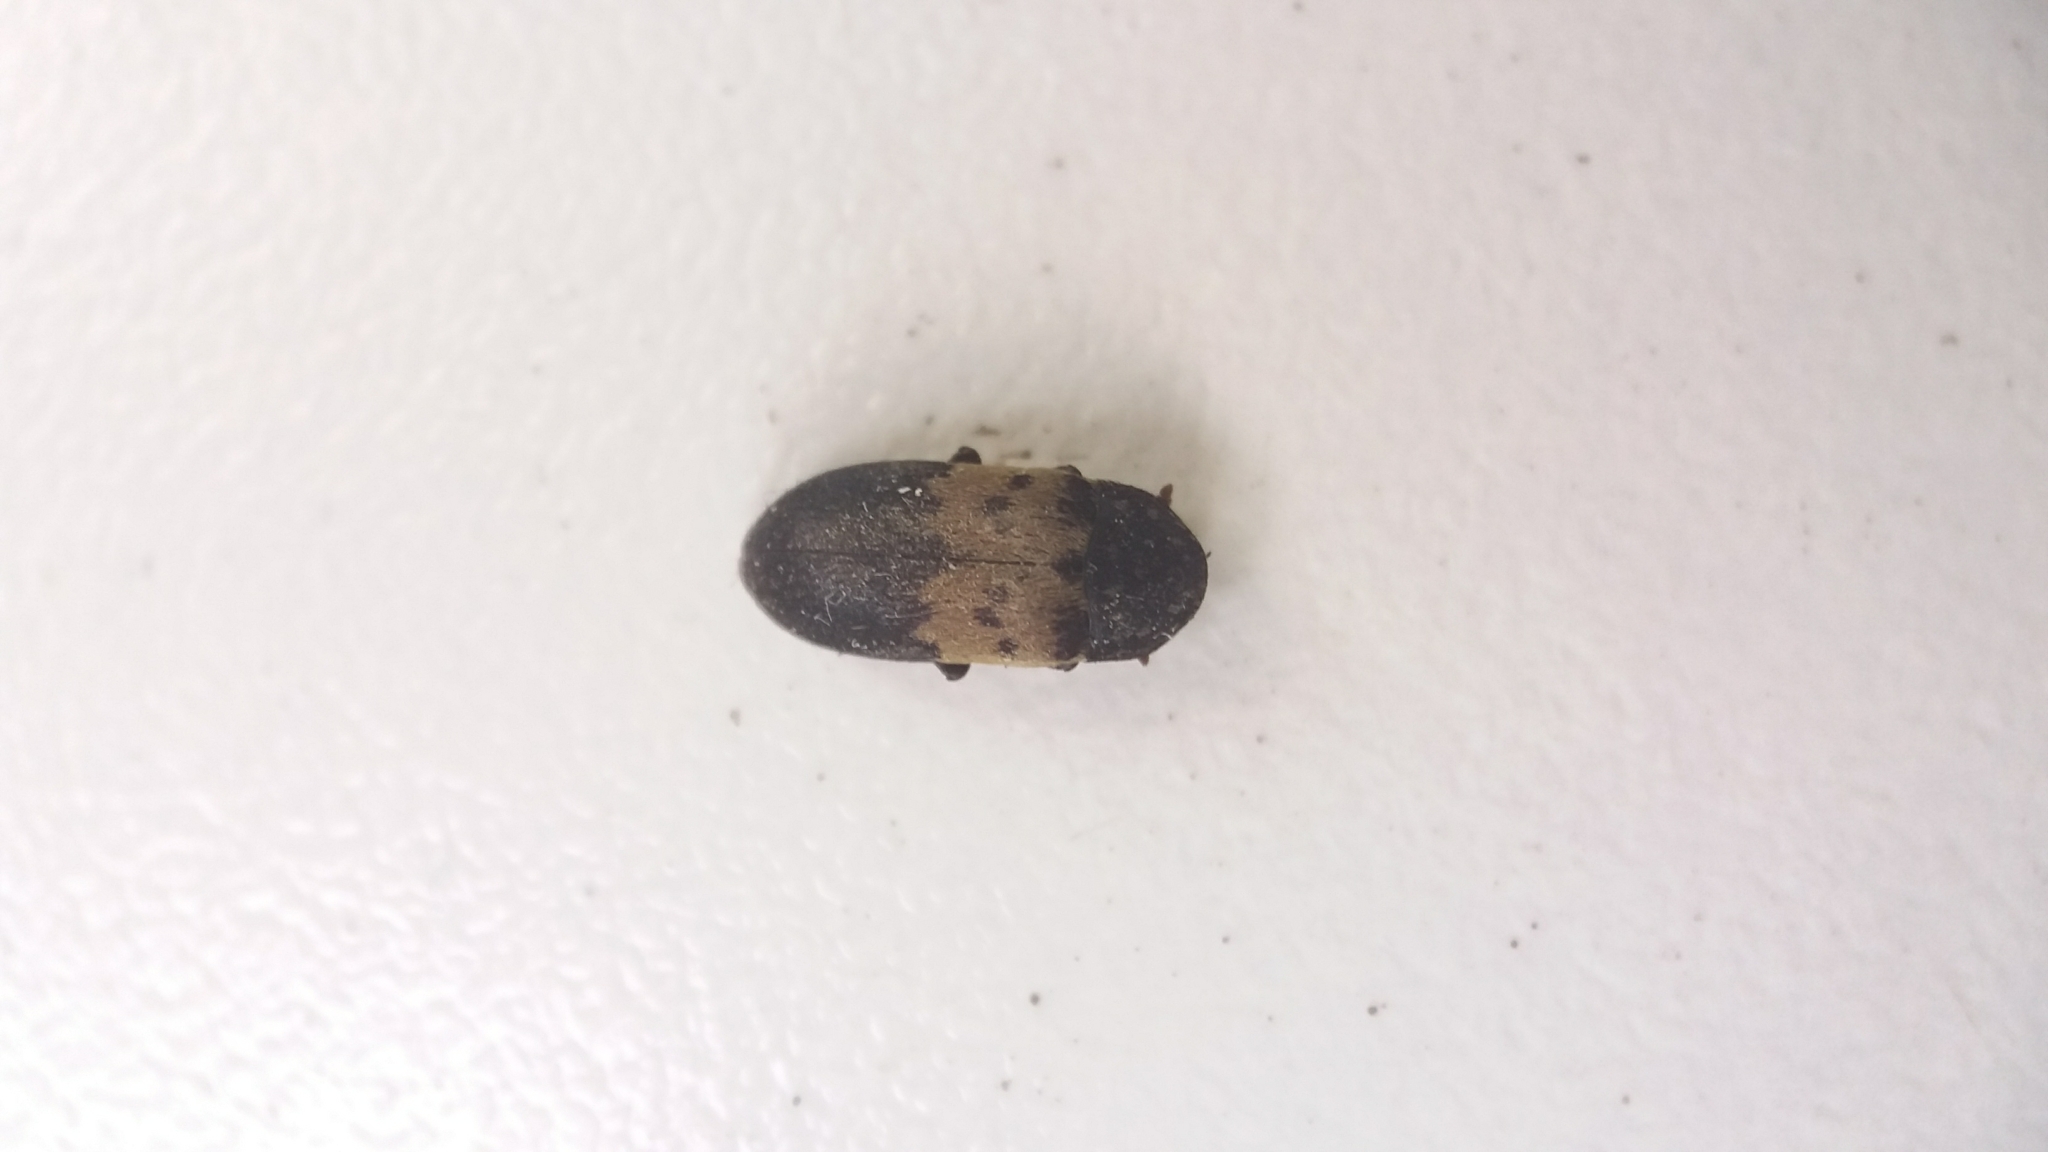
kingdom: Animalia
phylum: Arthropoda
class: Insecta
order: Coleoptera
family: Dermestidae
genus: Dermestes
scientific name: Dermestes lardarius
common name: Larder beetle
